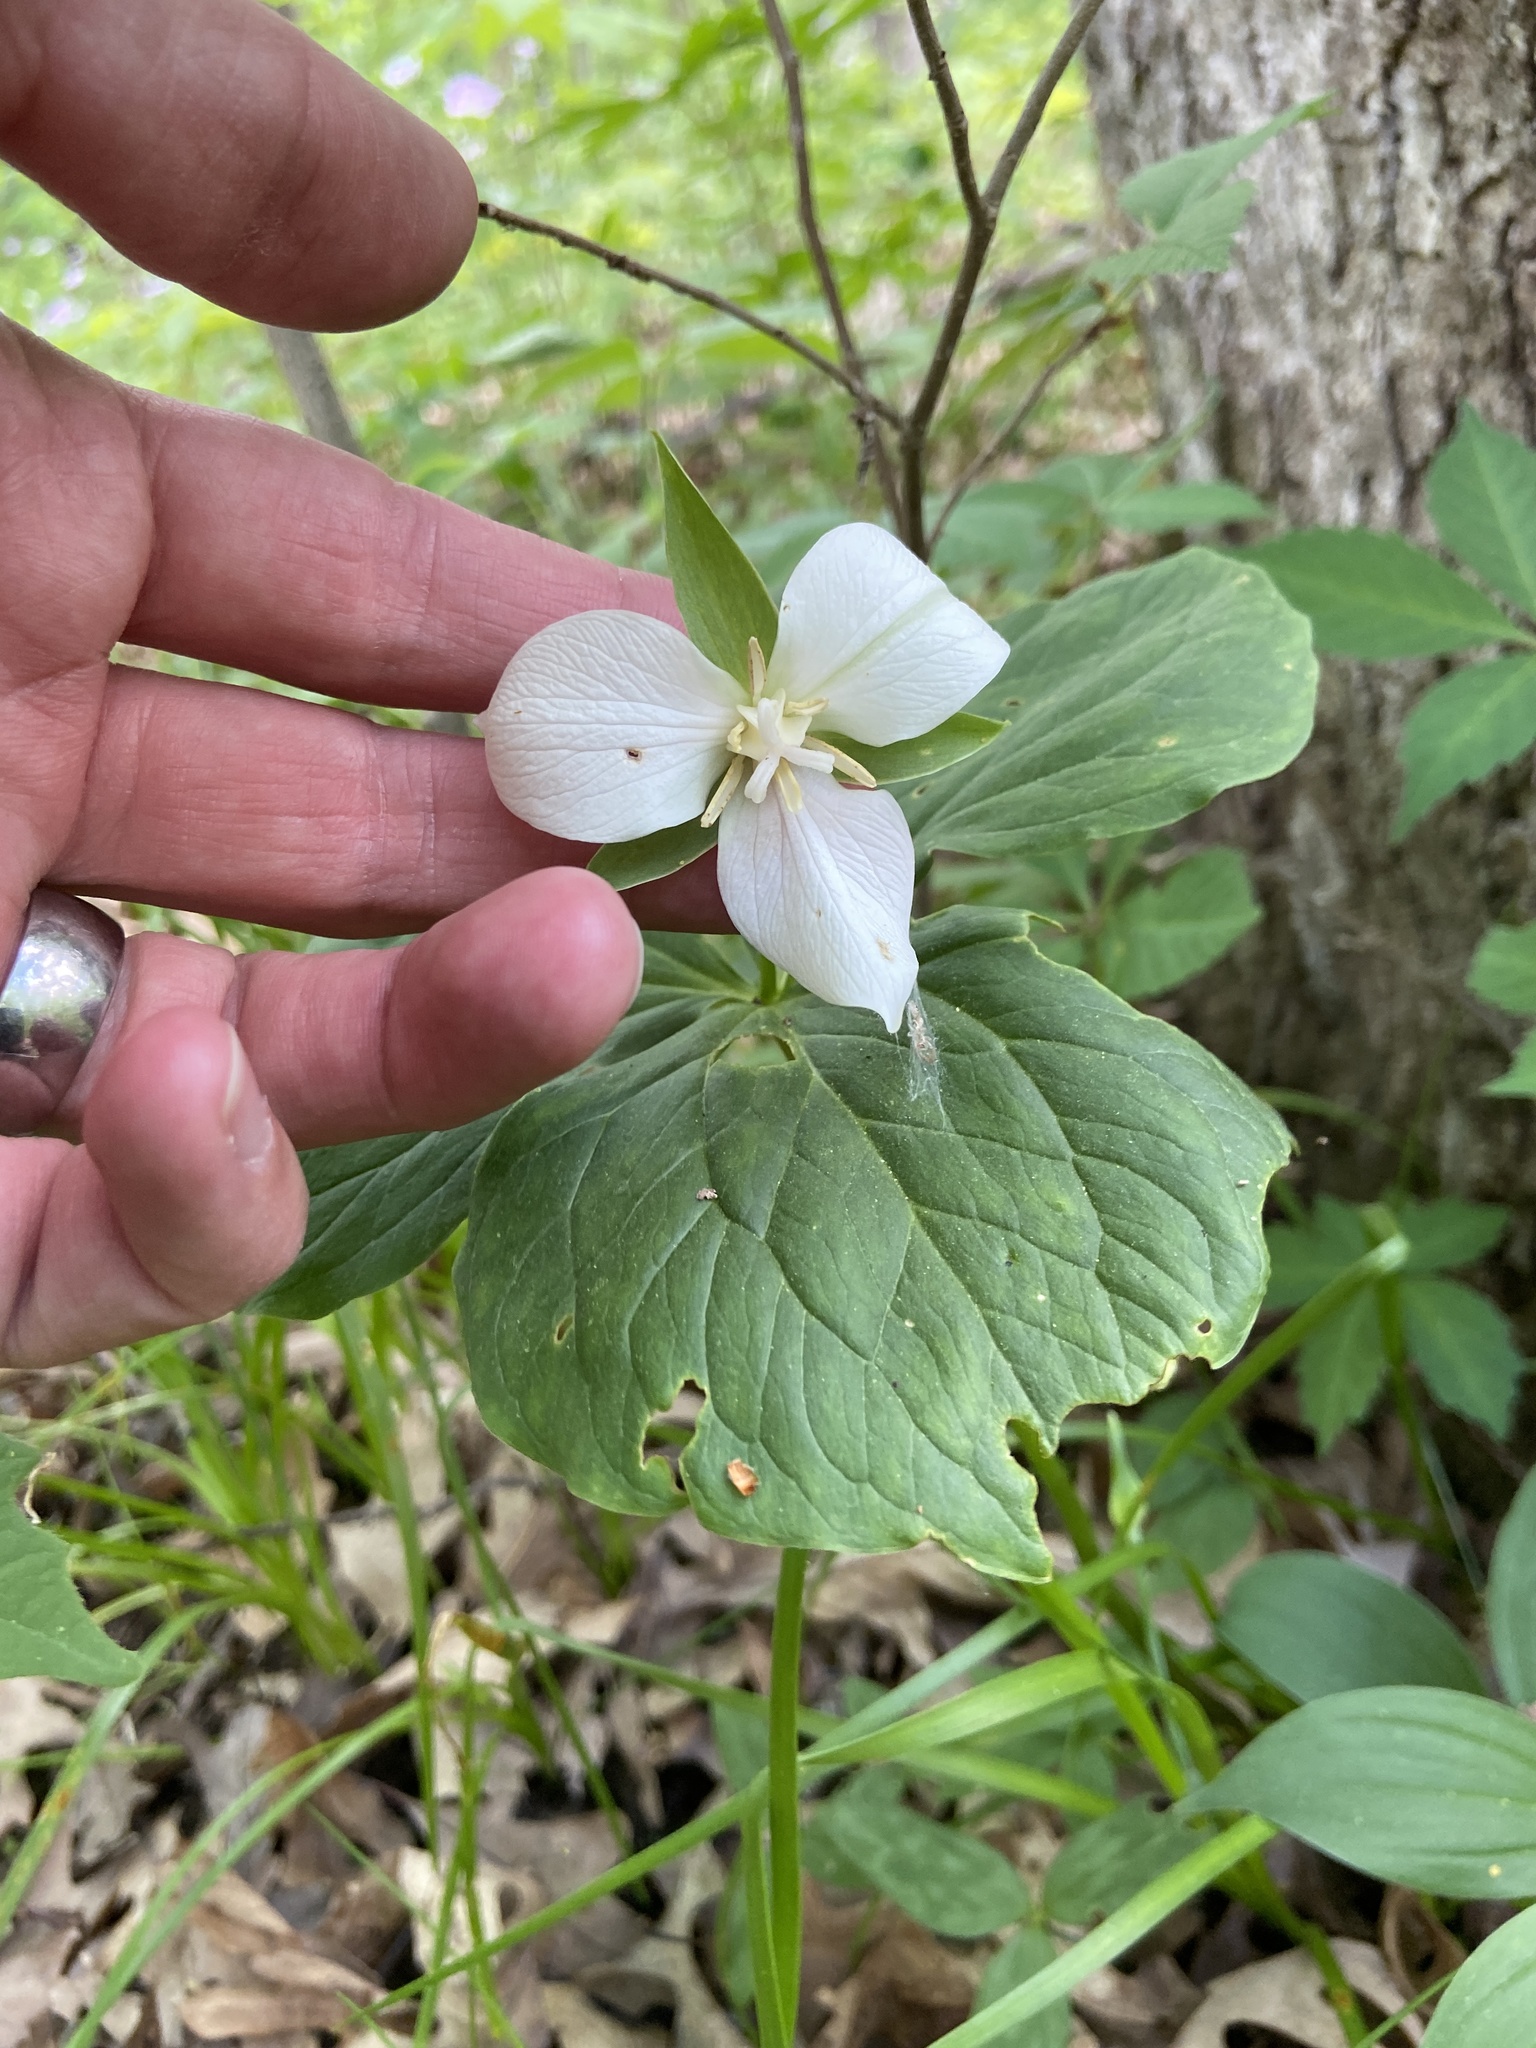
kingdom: Plantae
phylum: Tracheophyta
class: Liliopsida
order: Liliales
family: Melanthiaceae
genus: Trillium
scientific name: Trillium flexipes
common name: Drooping trillium
